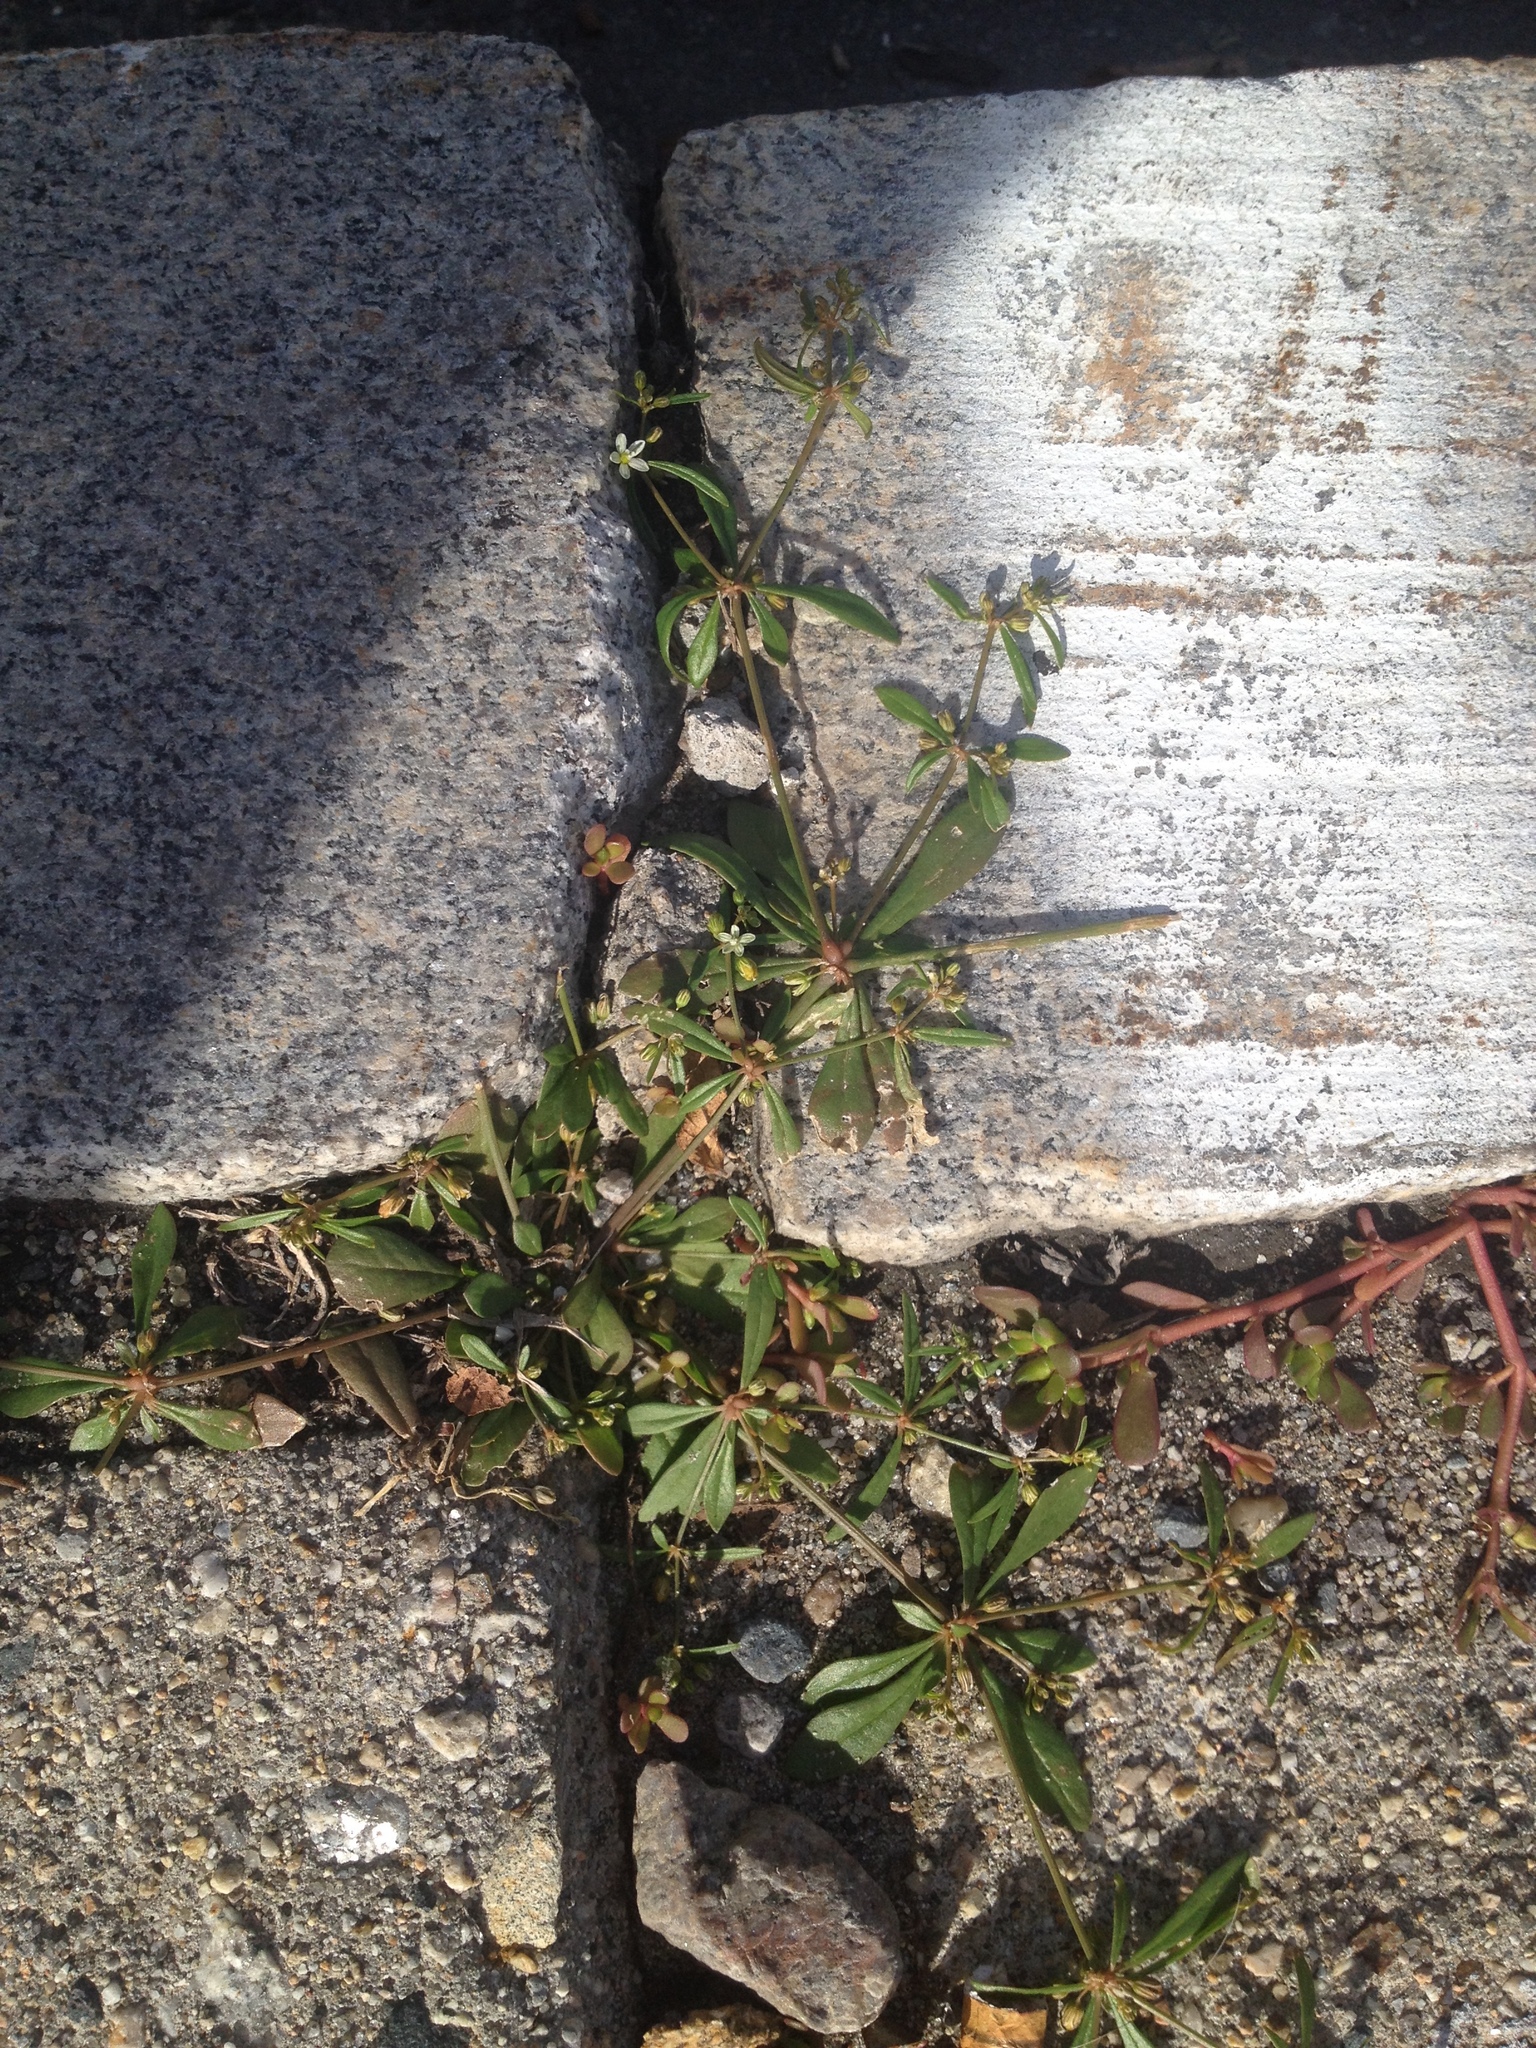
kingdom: Plantae
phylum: Tracheophyta
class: Magnoliopsida
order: Caryophyllales
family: Molluginaceae
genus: Mollugo
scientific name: Mollugo verticillata
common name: Green carpetweed
